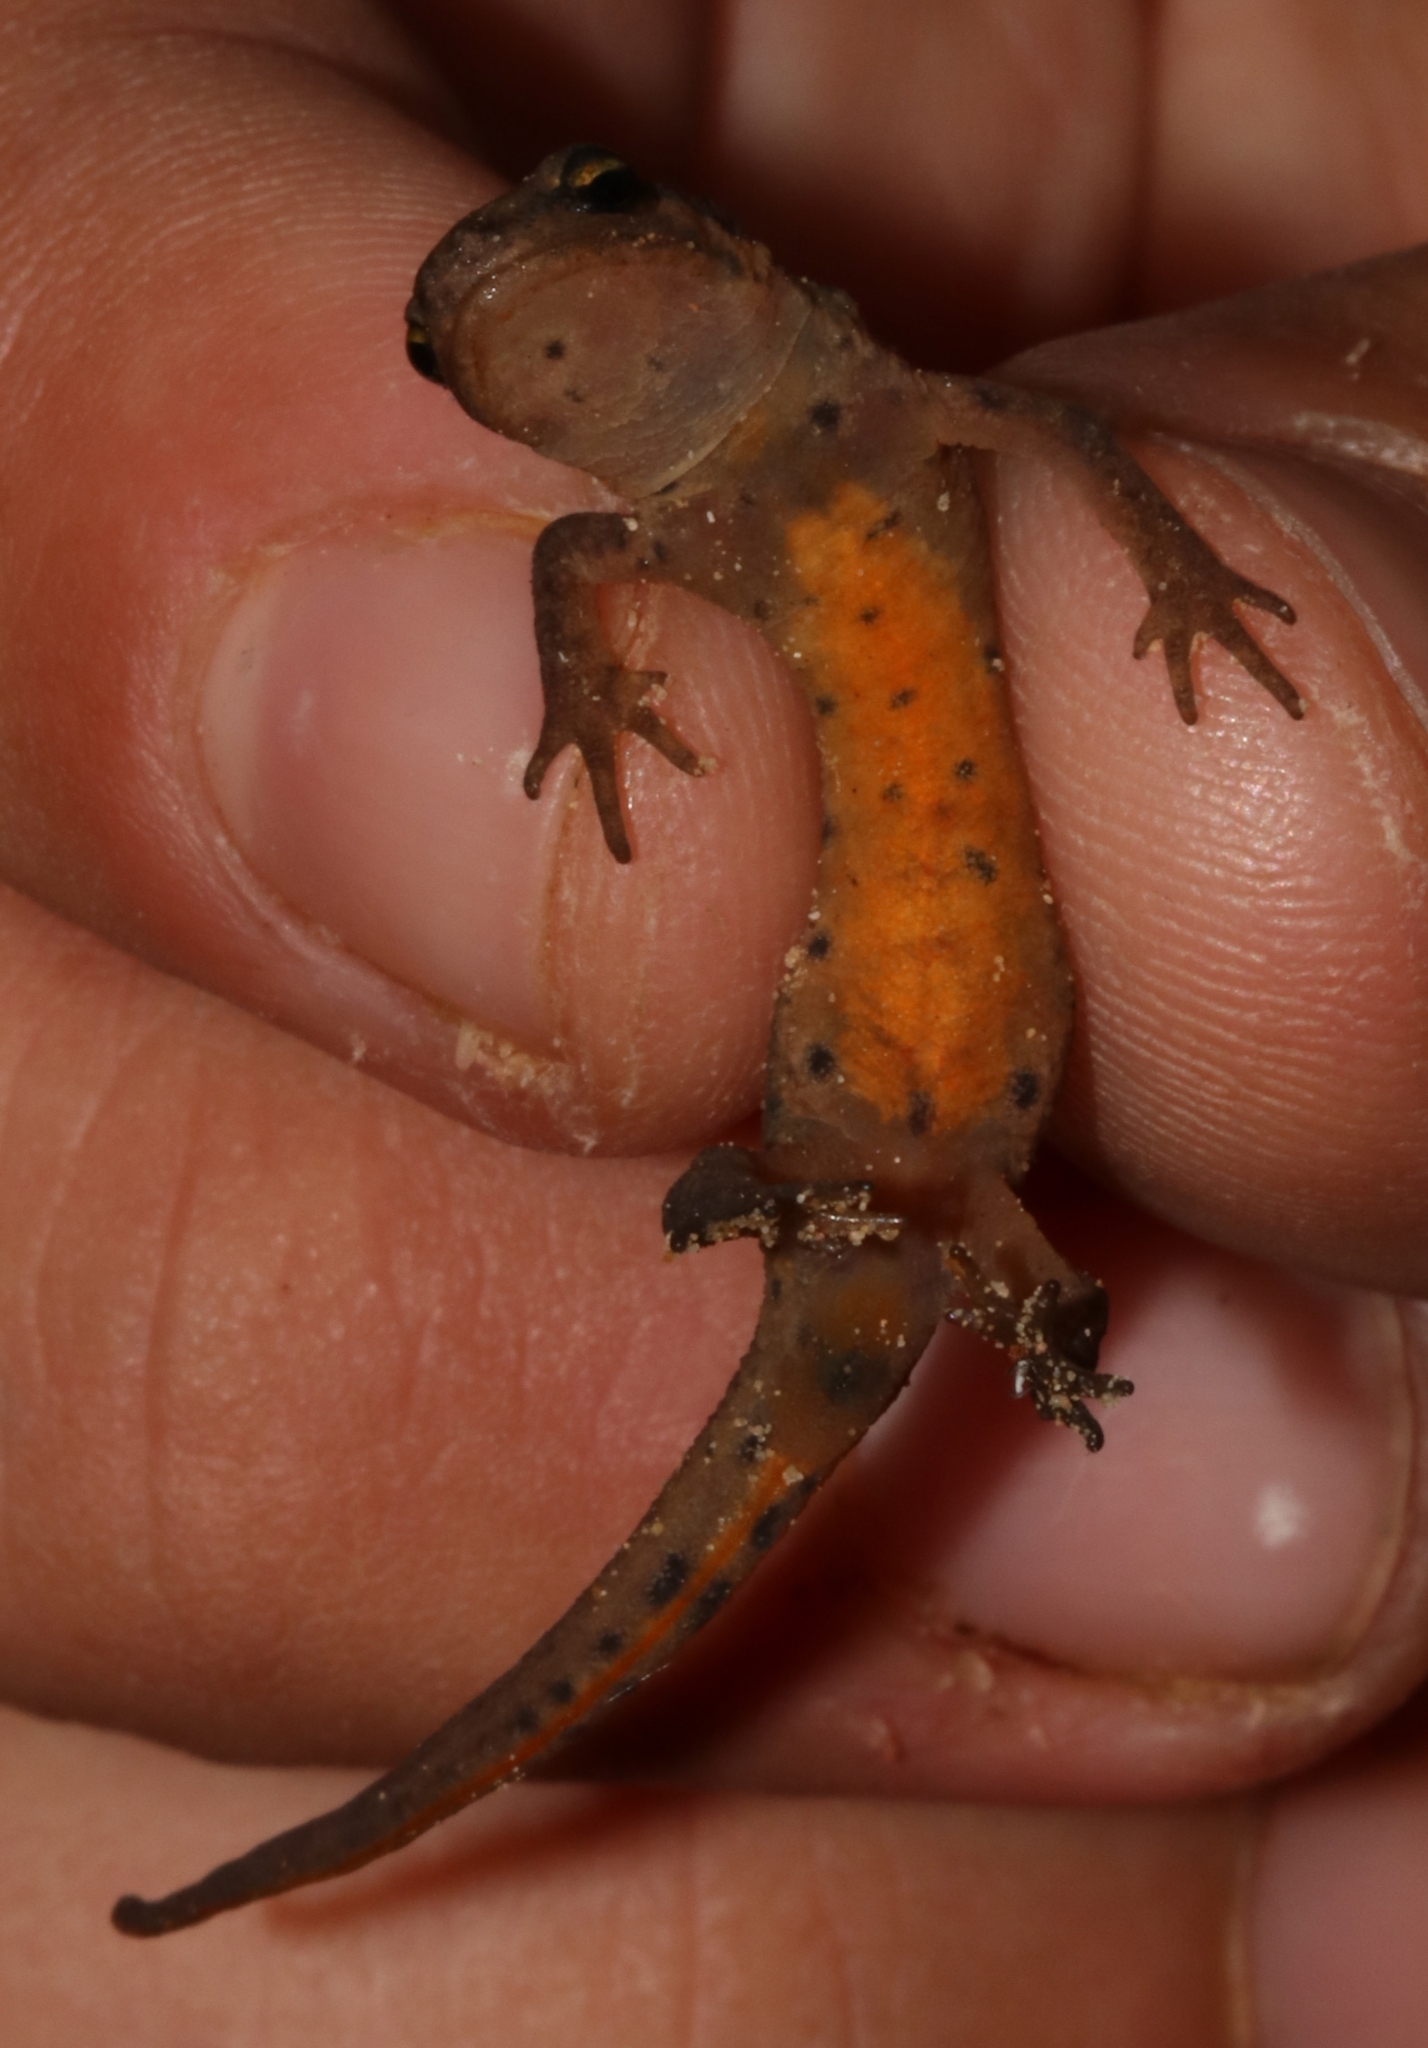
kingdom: Animalia
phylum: Chordata
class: Amphibia
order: Caudata
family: Salamandridae
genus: Lissotriton
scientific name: Lissotriton graecus
